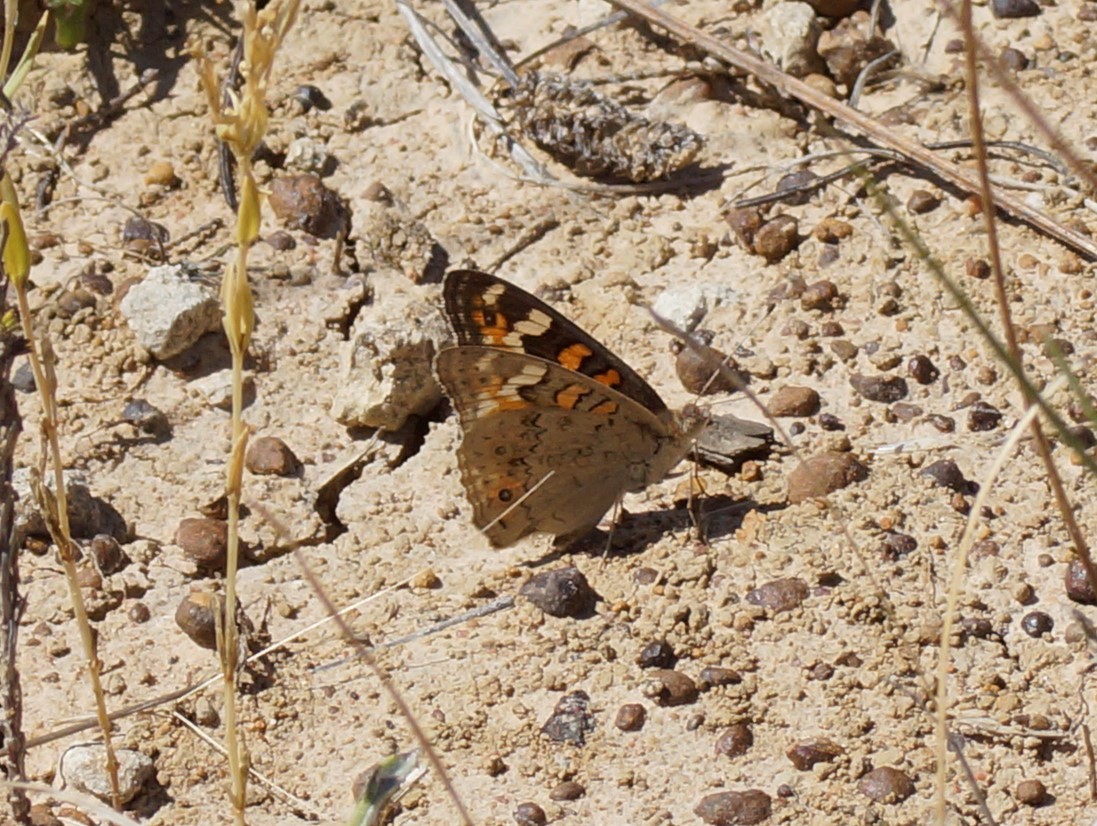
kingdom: Animalia
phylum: Arthropoda
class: Insecta
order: Lepidoptera
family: Nymphalidae
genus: Junonia
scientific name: Junonia villida
